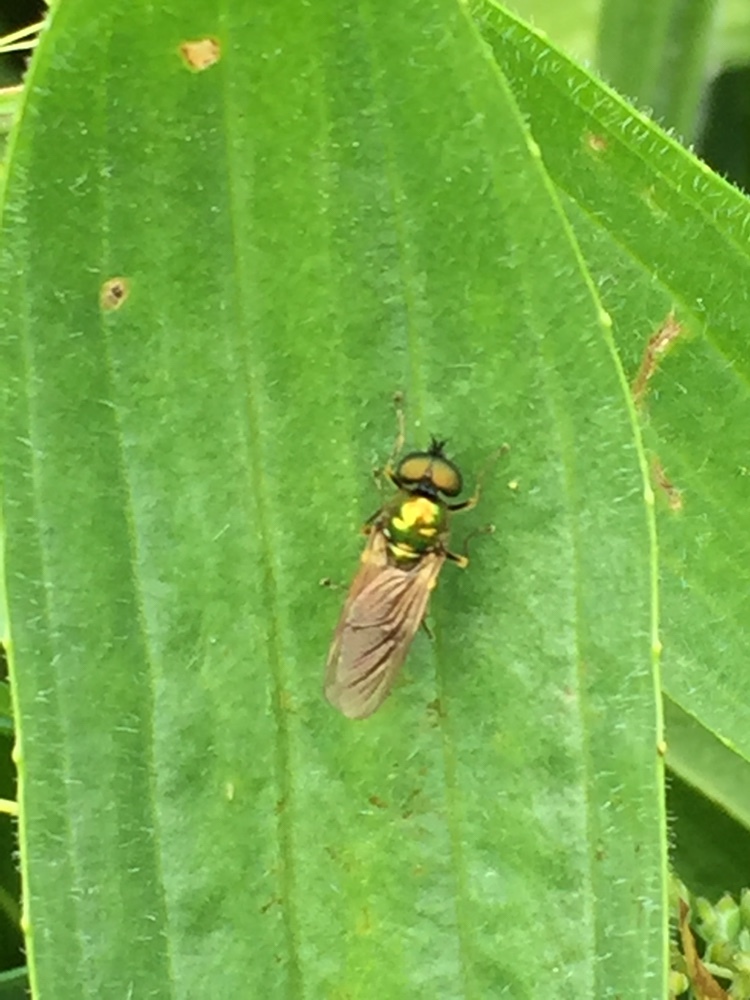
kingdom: Animalia
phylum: Arthropoda
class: Insecta
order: Diptera
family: Stratiomyidae
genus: Chloromyia
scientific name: Chloromyia formosa
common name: Soldier fly
